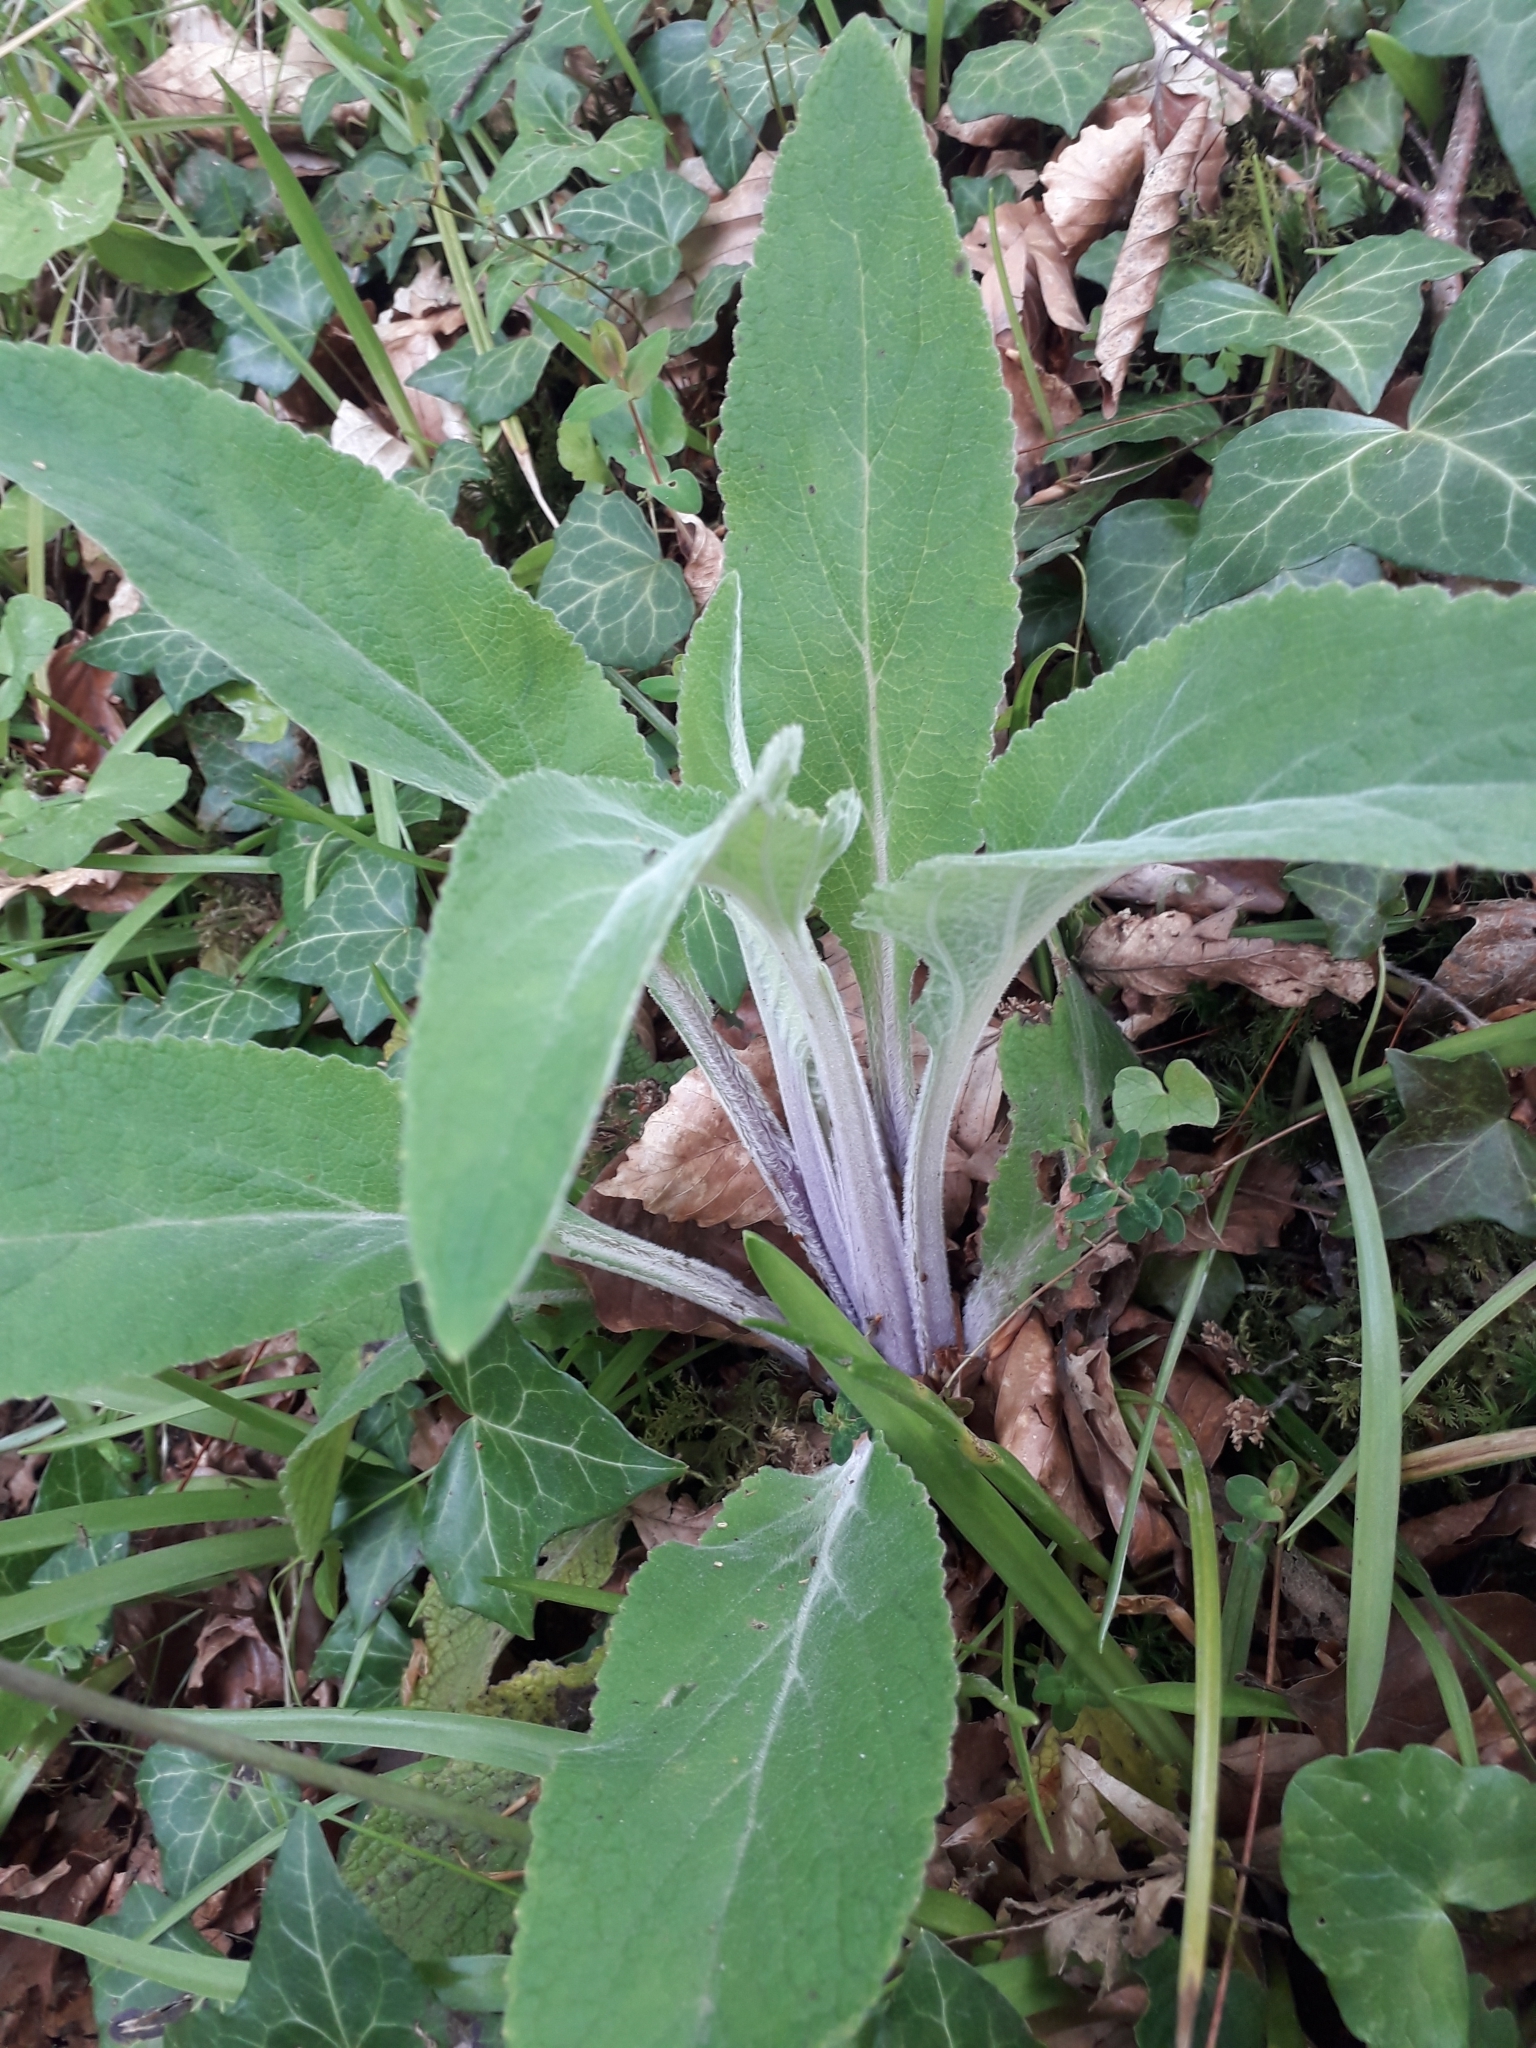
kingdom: Plantae
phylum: Tracheophyta
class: Magnoliopsida
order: Lamiales
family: Plantaginaceae
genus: Digitalis
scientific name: Digitalis purpurea
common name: Foxglove
